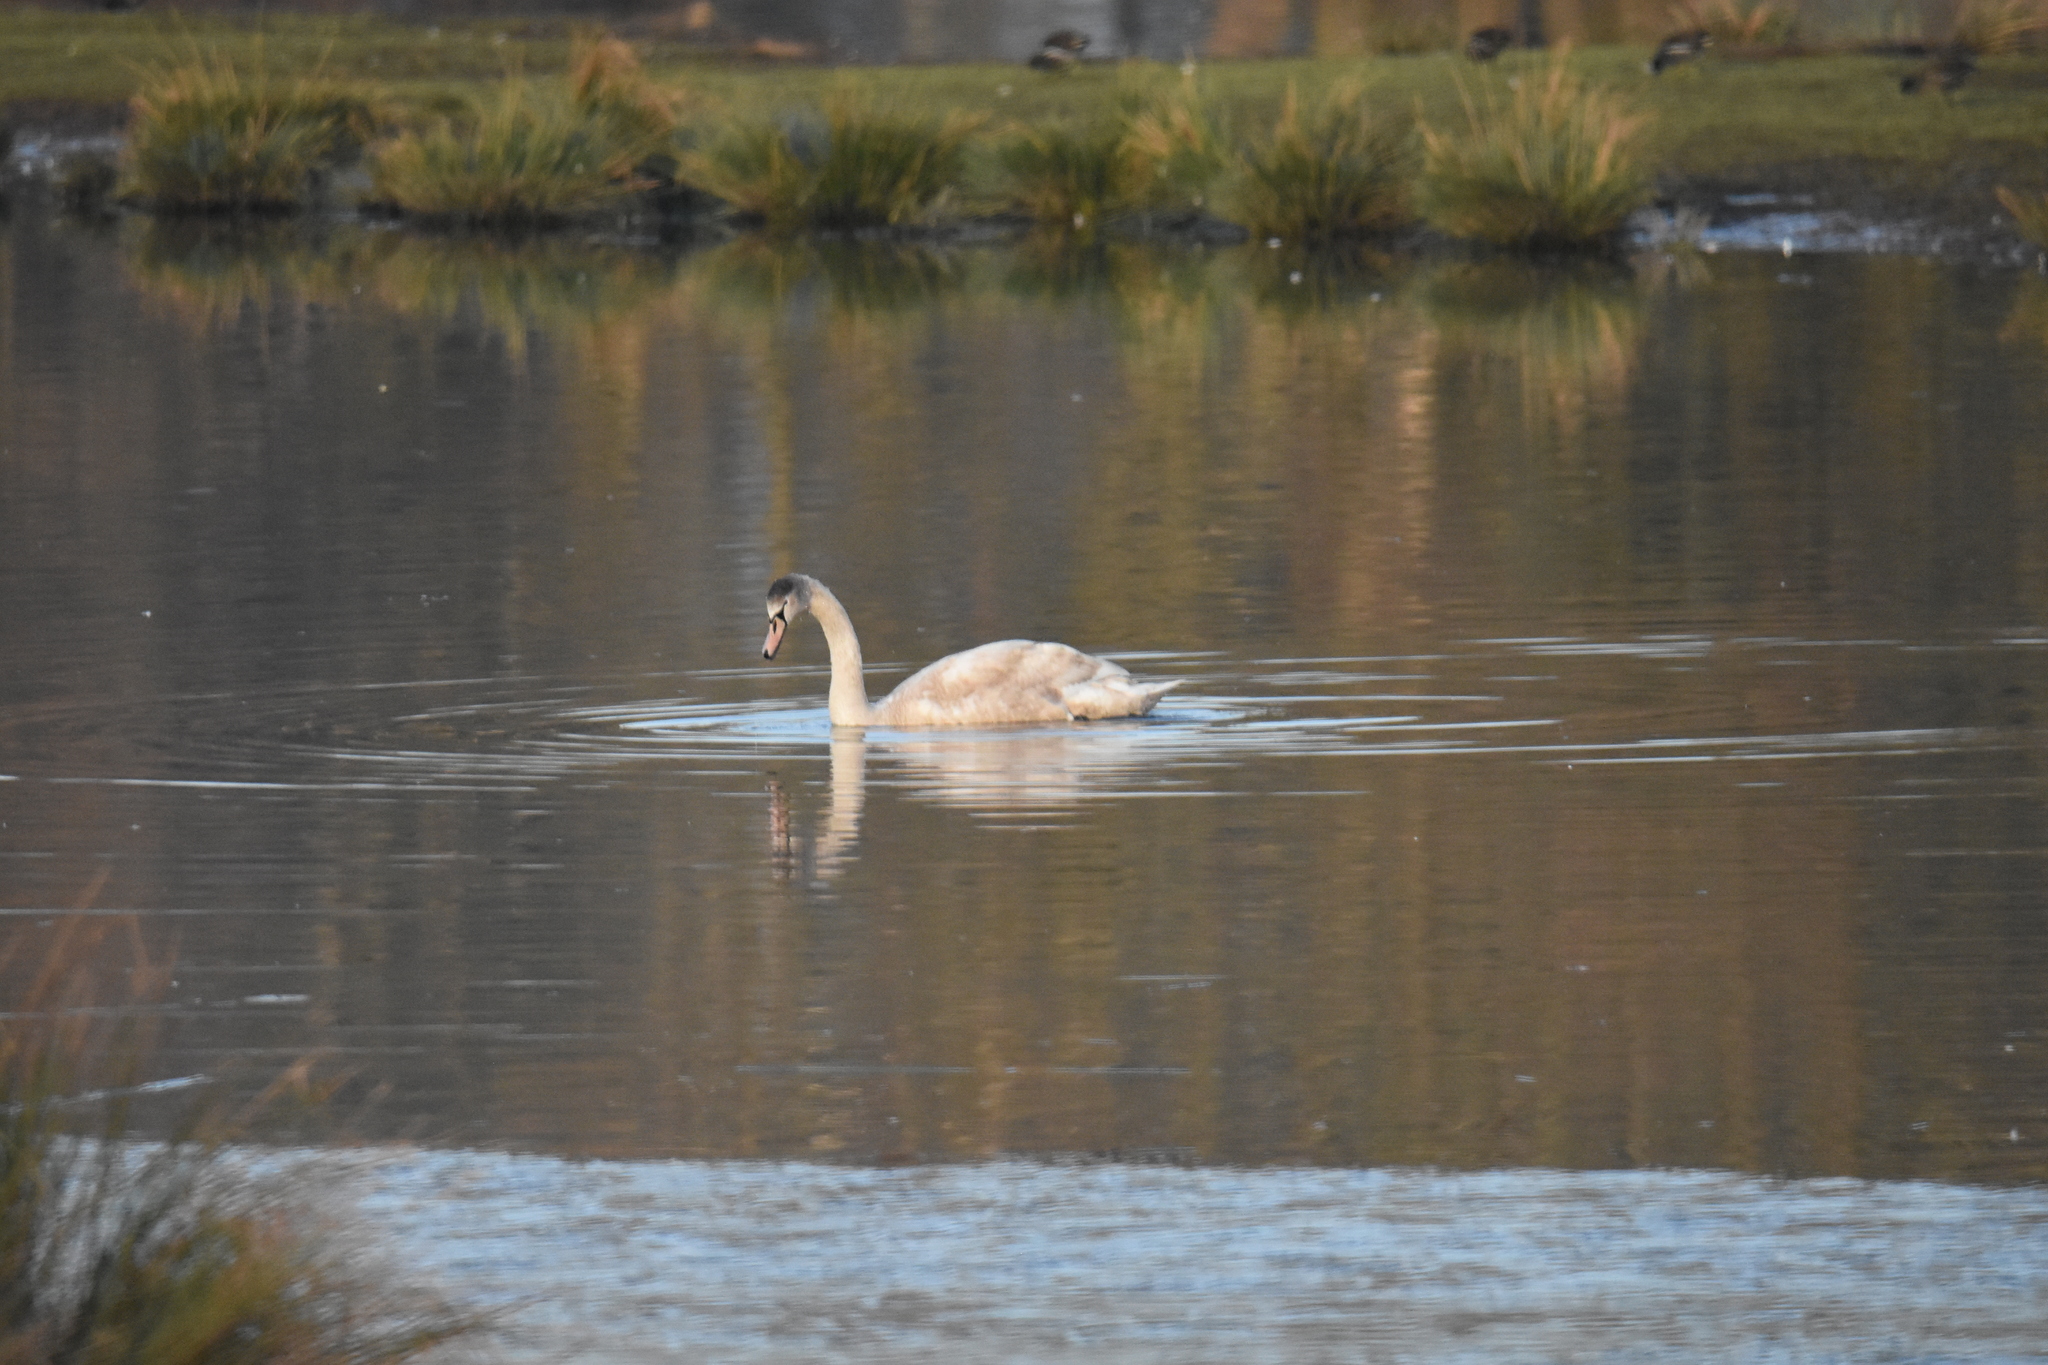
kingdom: Animalia
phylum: Chordata
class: Aves
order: Anseriformes
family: Anatidae
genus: Cygnus
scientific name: Cygnus olor
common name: Mute swan
